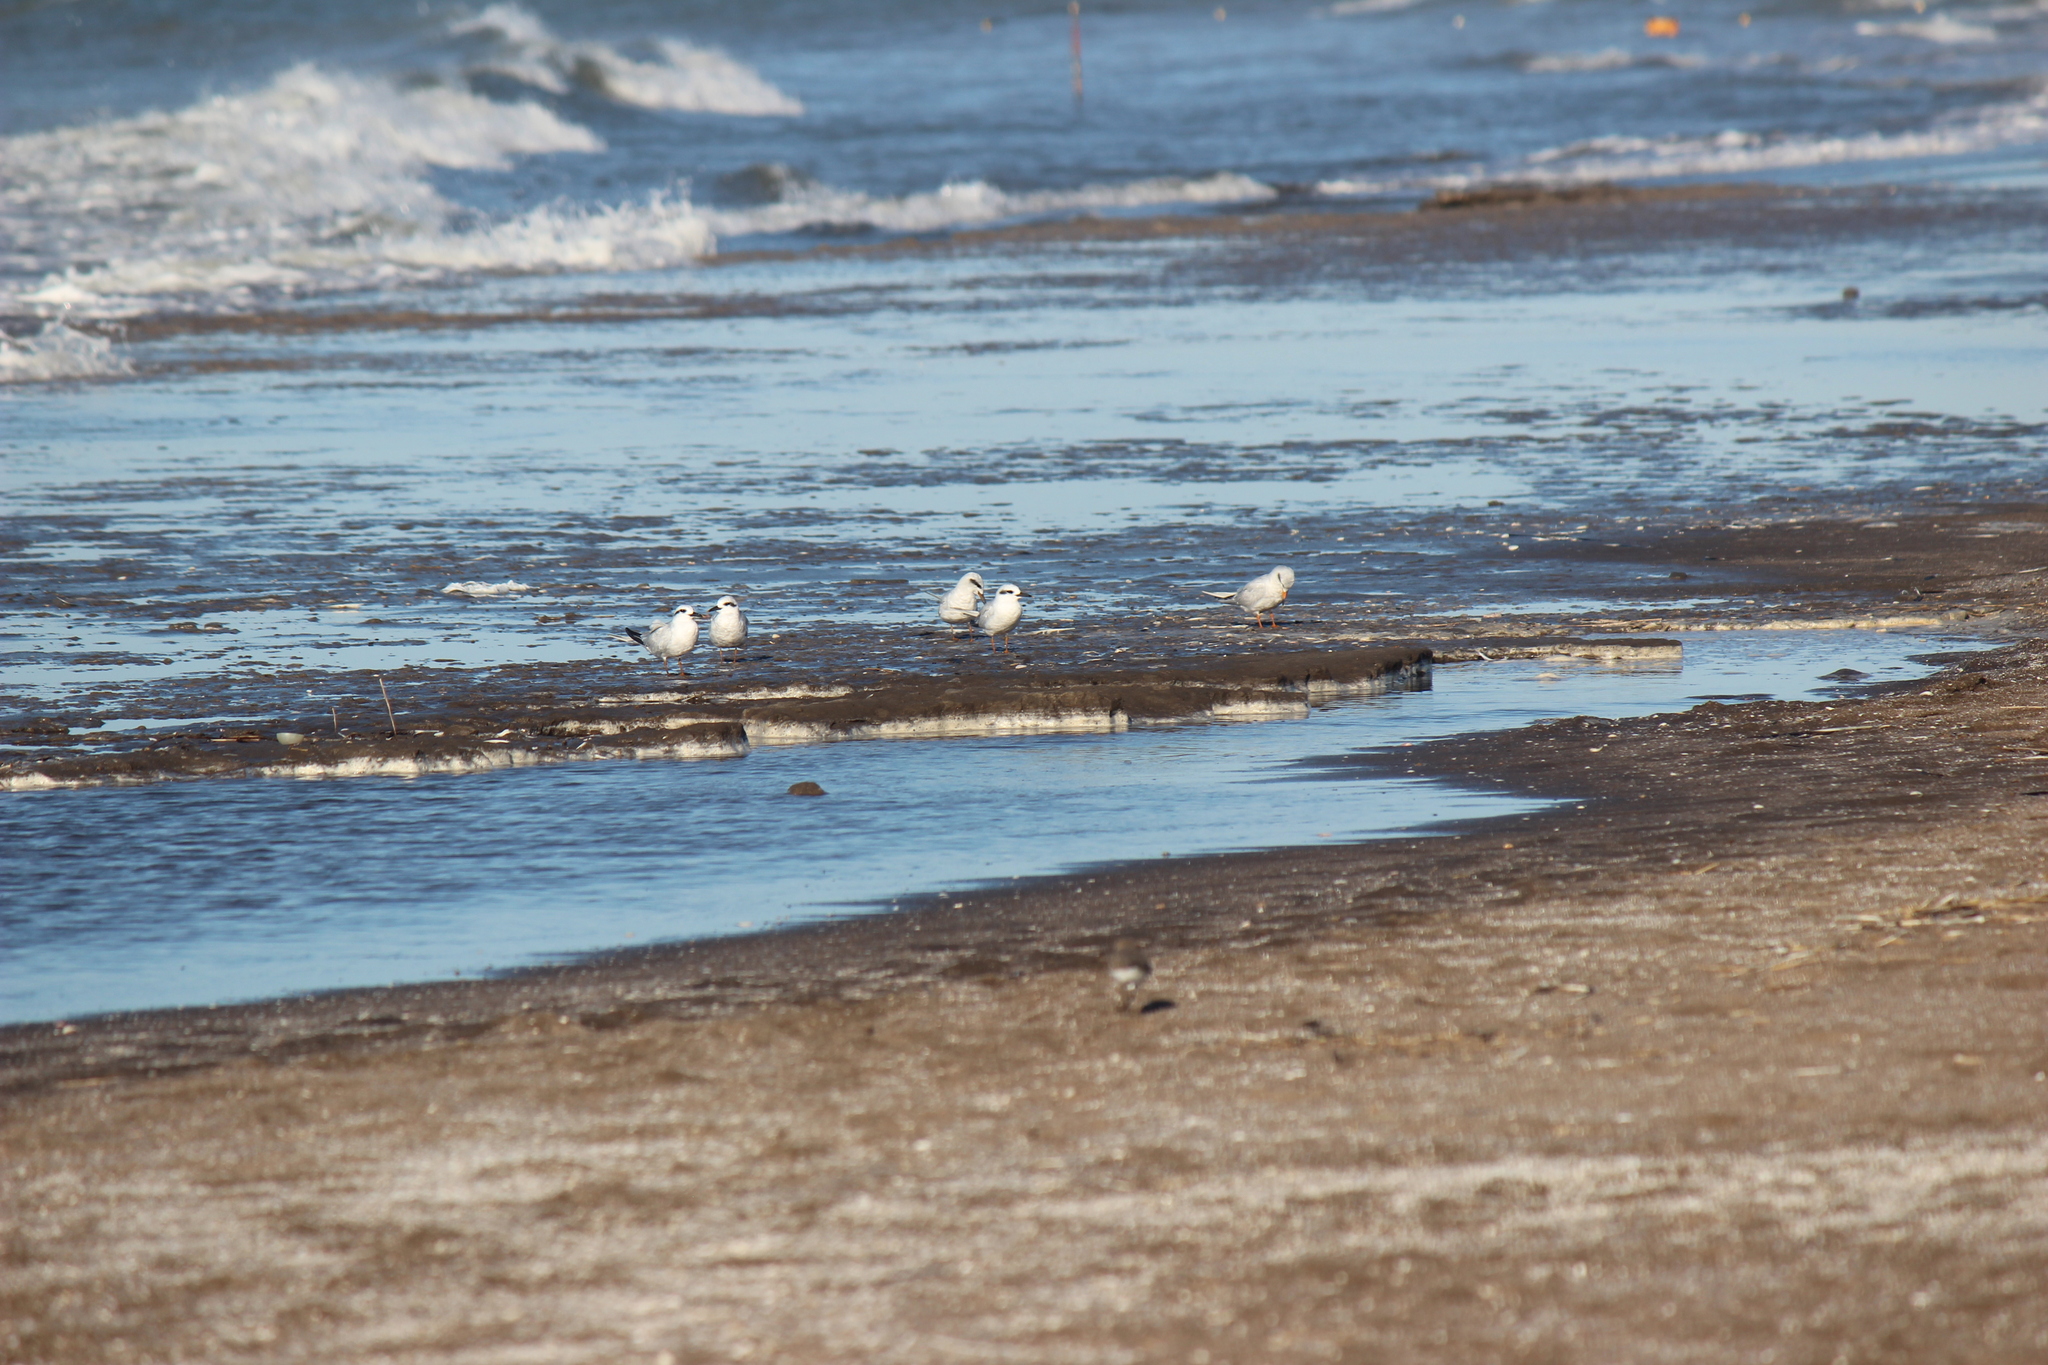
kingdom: Animalia
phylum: Chordata
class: Aves
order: Charadriiformes
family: Laridae
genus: Sterna
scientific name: Sterna trudeaui
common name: Snowy-crowned tern
